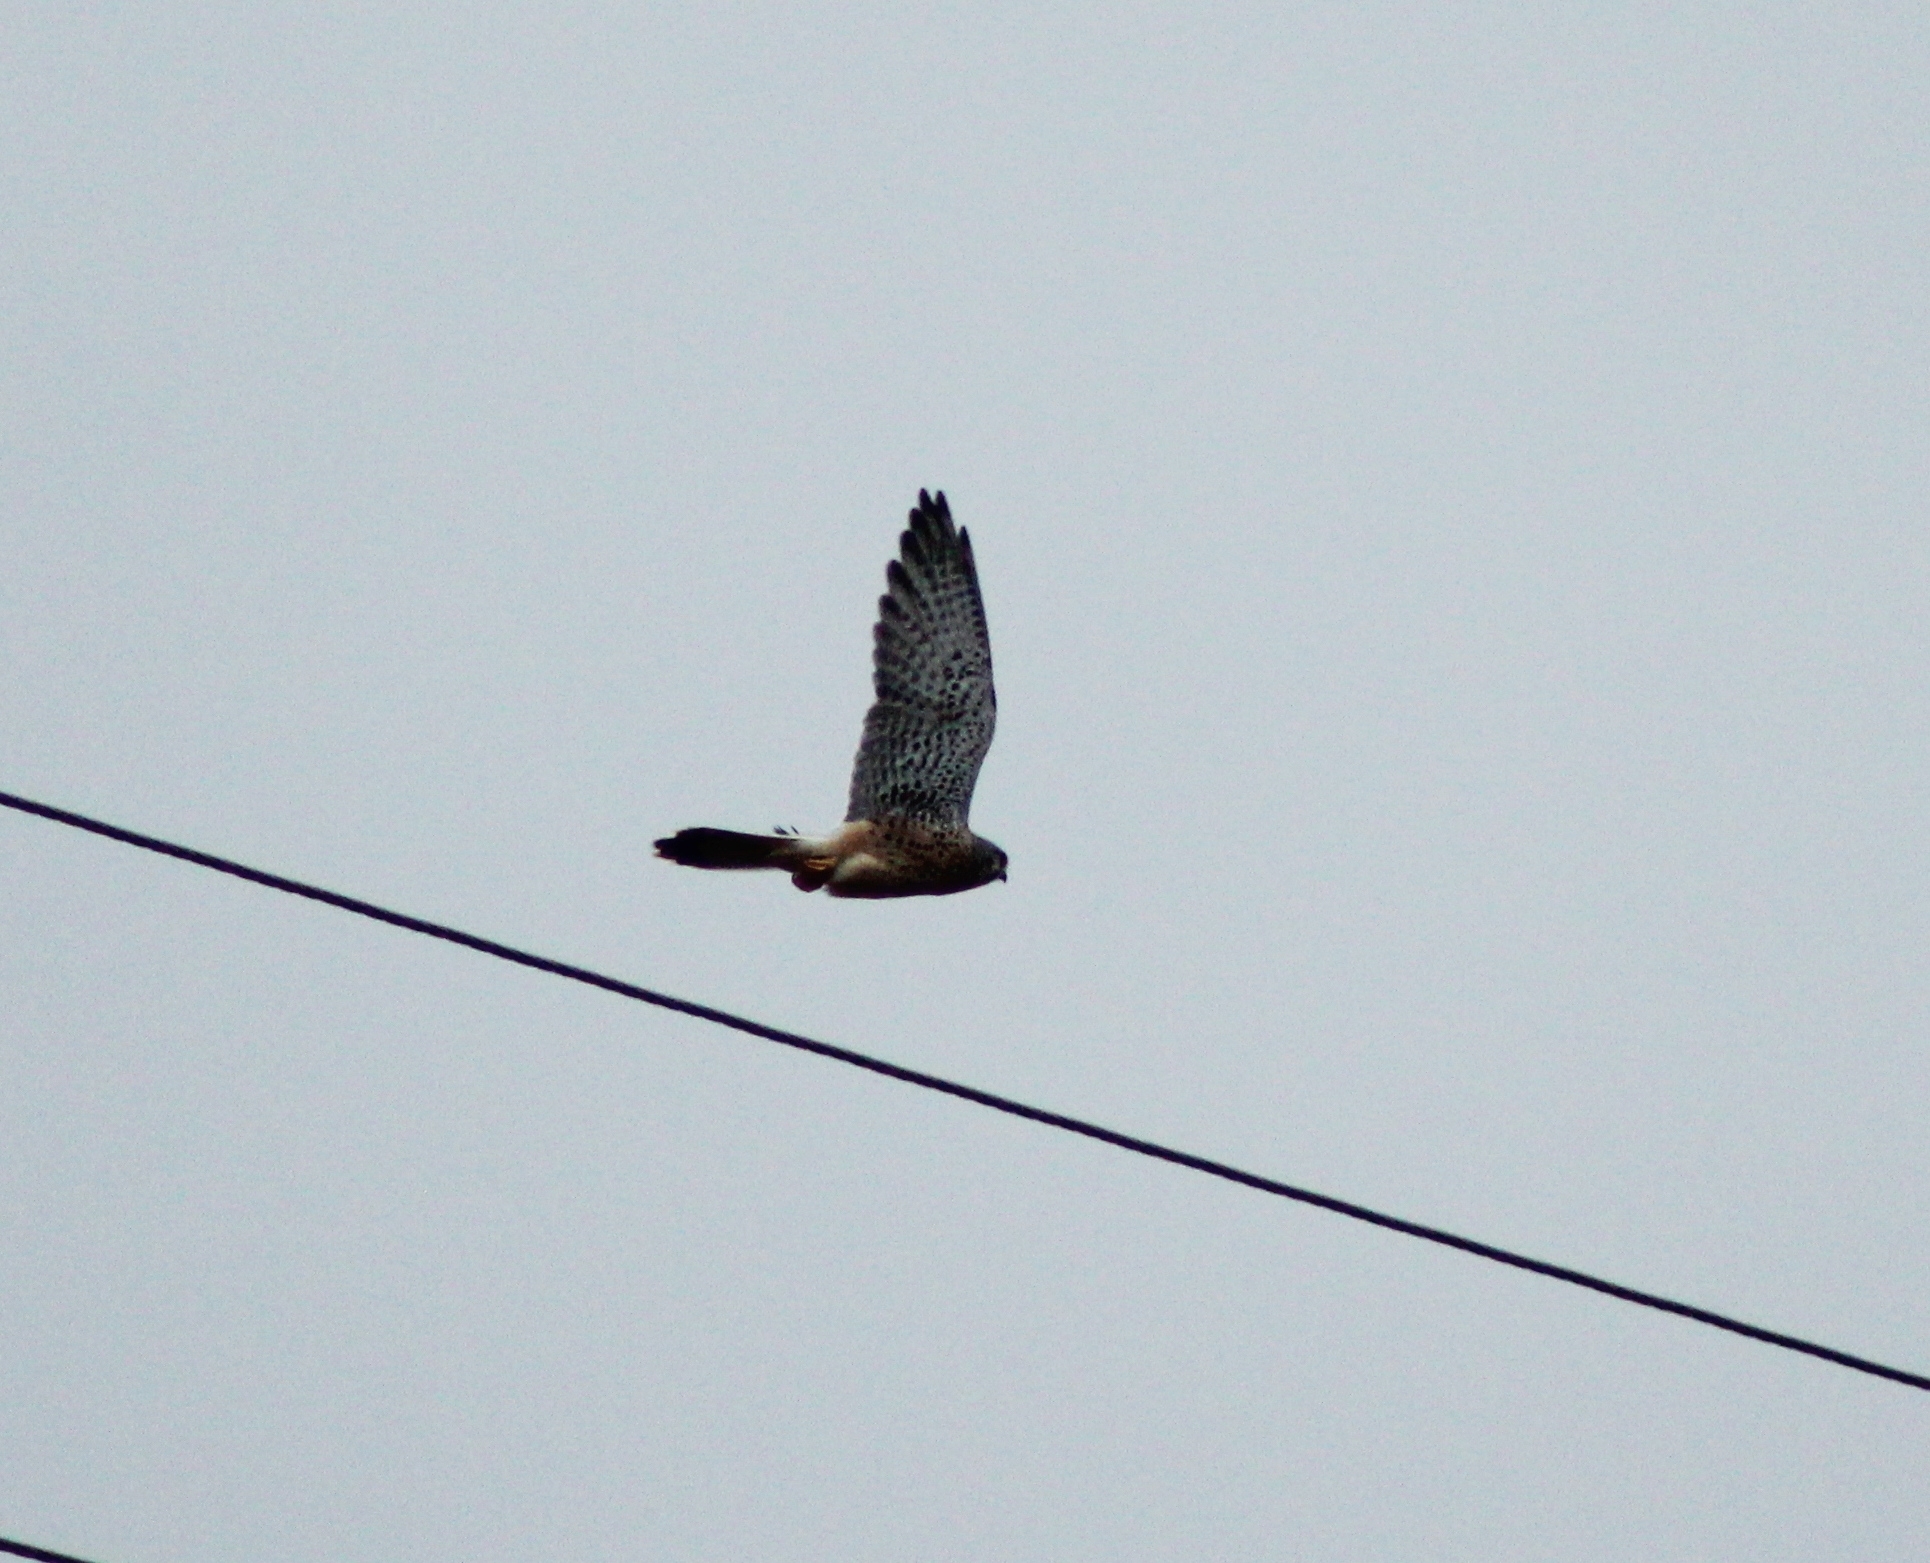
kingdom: Animalia
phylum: Chordata
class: Aves
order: Falconiformes
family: Falconidae
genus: Falco
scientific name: Falco tinnunculus
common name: Common kestrel
